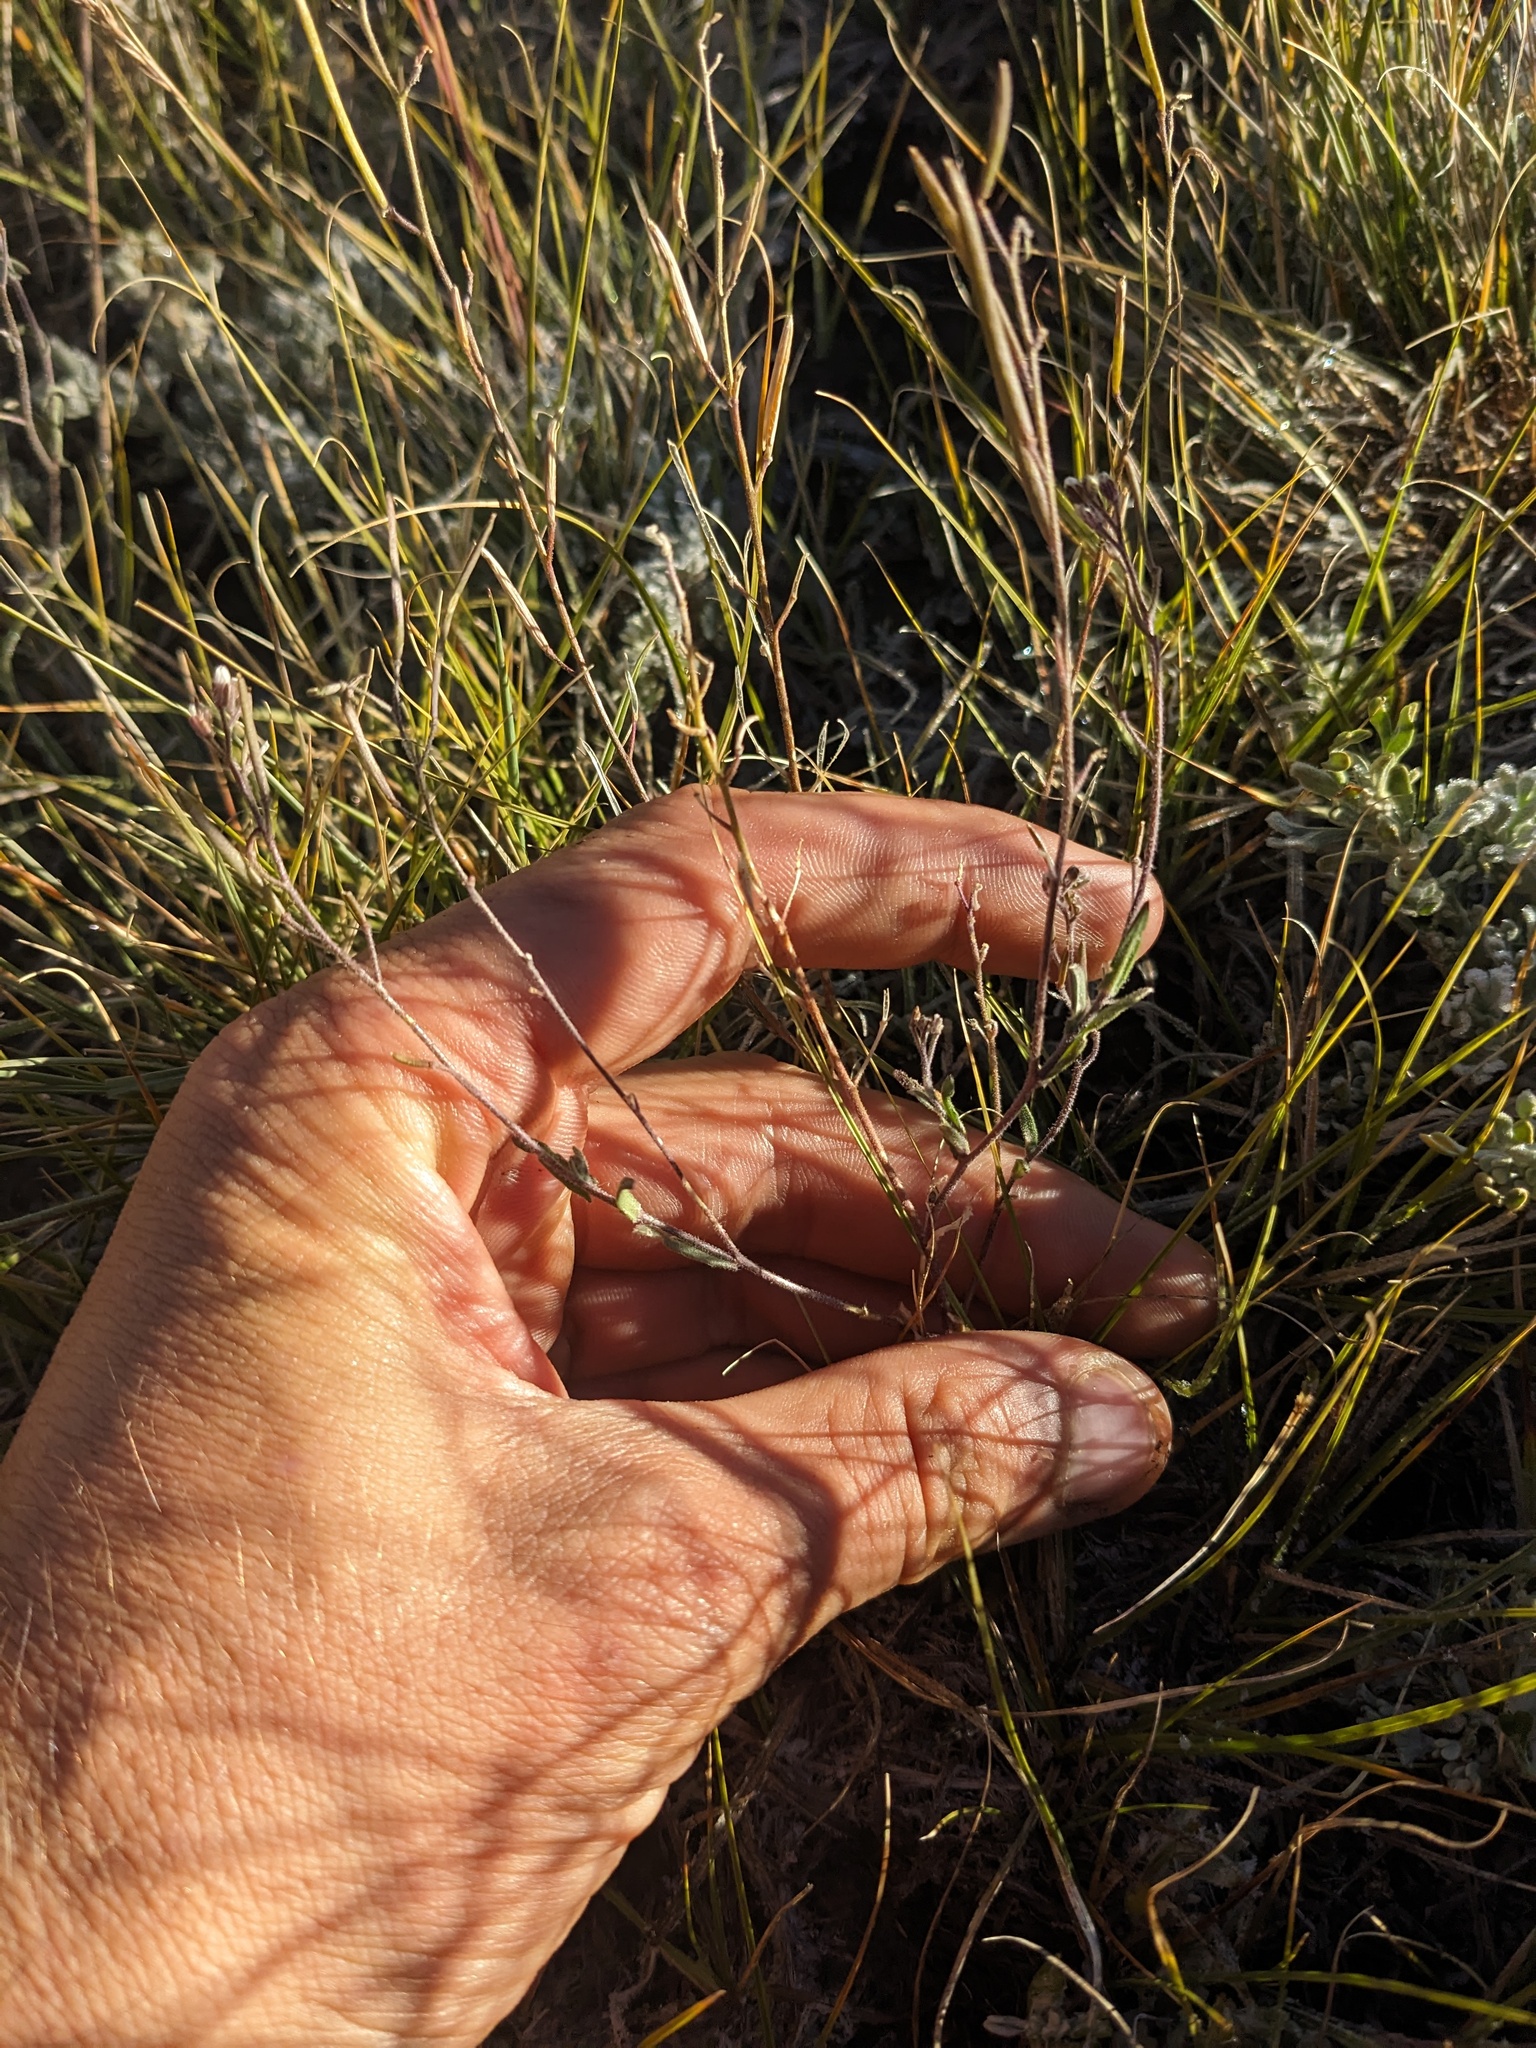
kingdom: Plantae
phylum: Tracheophyta
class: Magnoliopsida
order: Brassicales
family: Brassicaceae
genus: Crucihimalaya
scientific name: Crucihimalaya virgata
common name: Rod halimolobos
